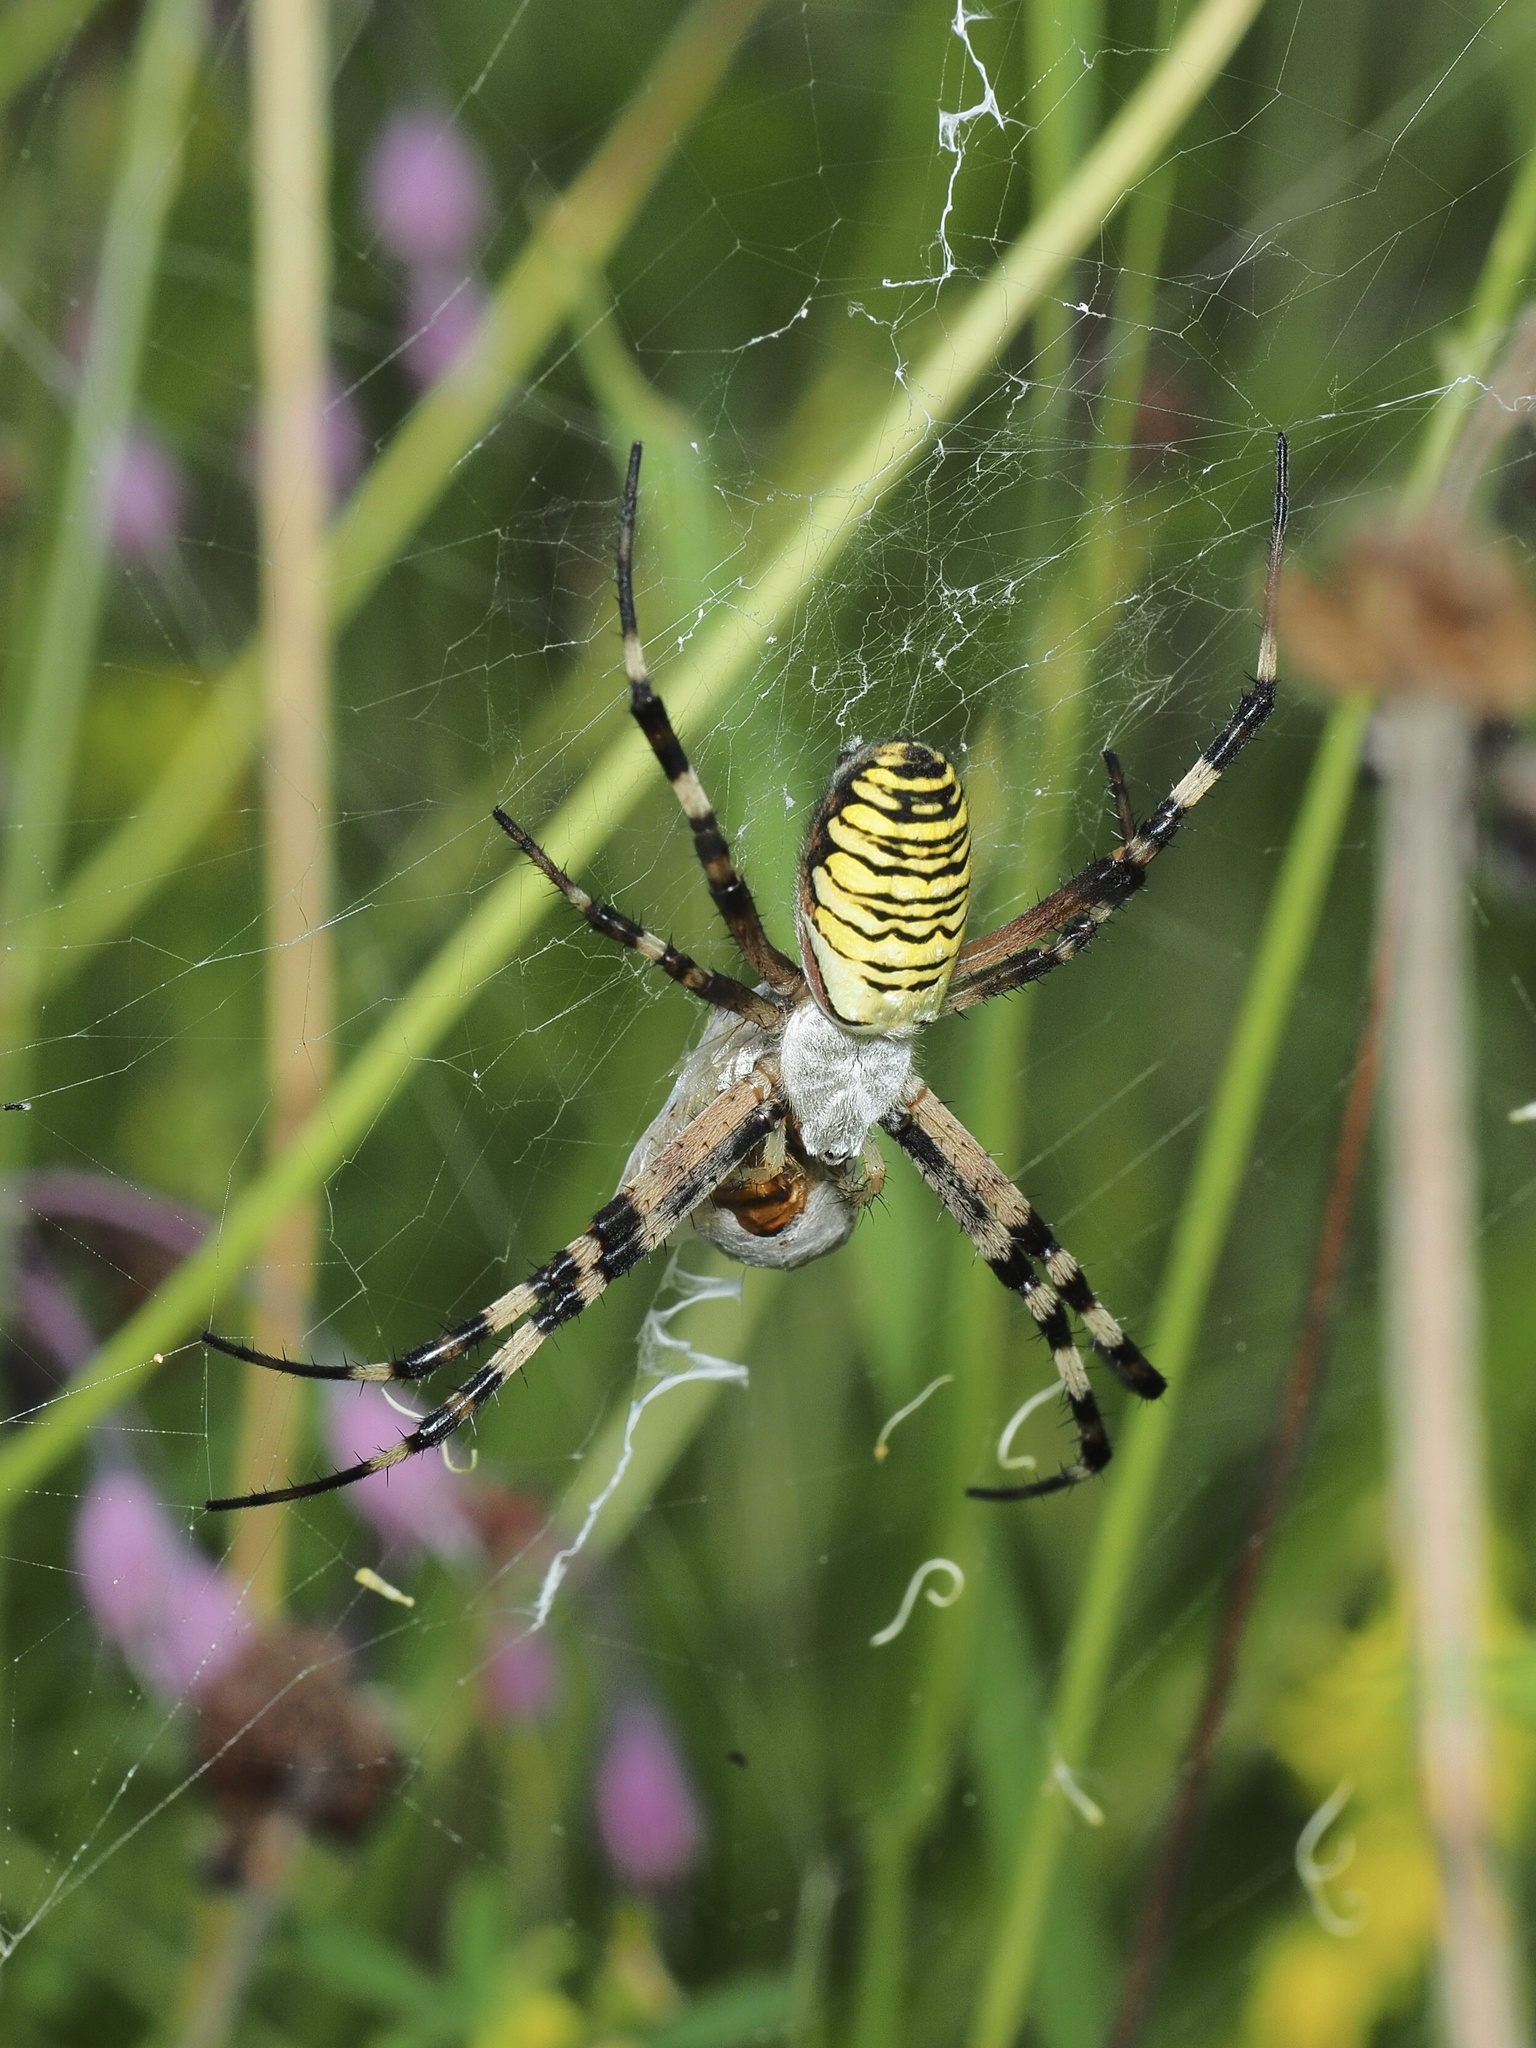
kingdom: Animalia
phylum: Arthropoda
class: Arachnida
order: Araneae
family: Araneidae
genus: Argiope
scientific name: Argiope bruennichi
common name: Wasp spider
